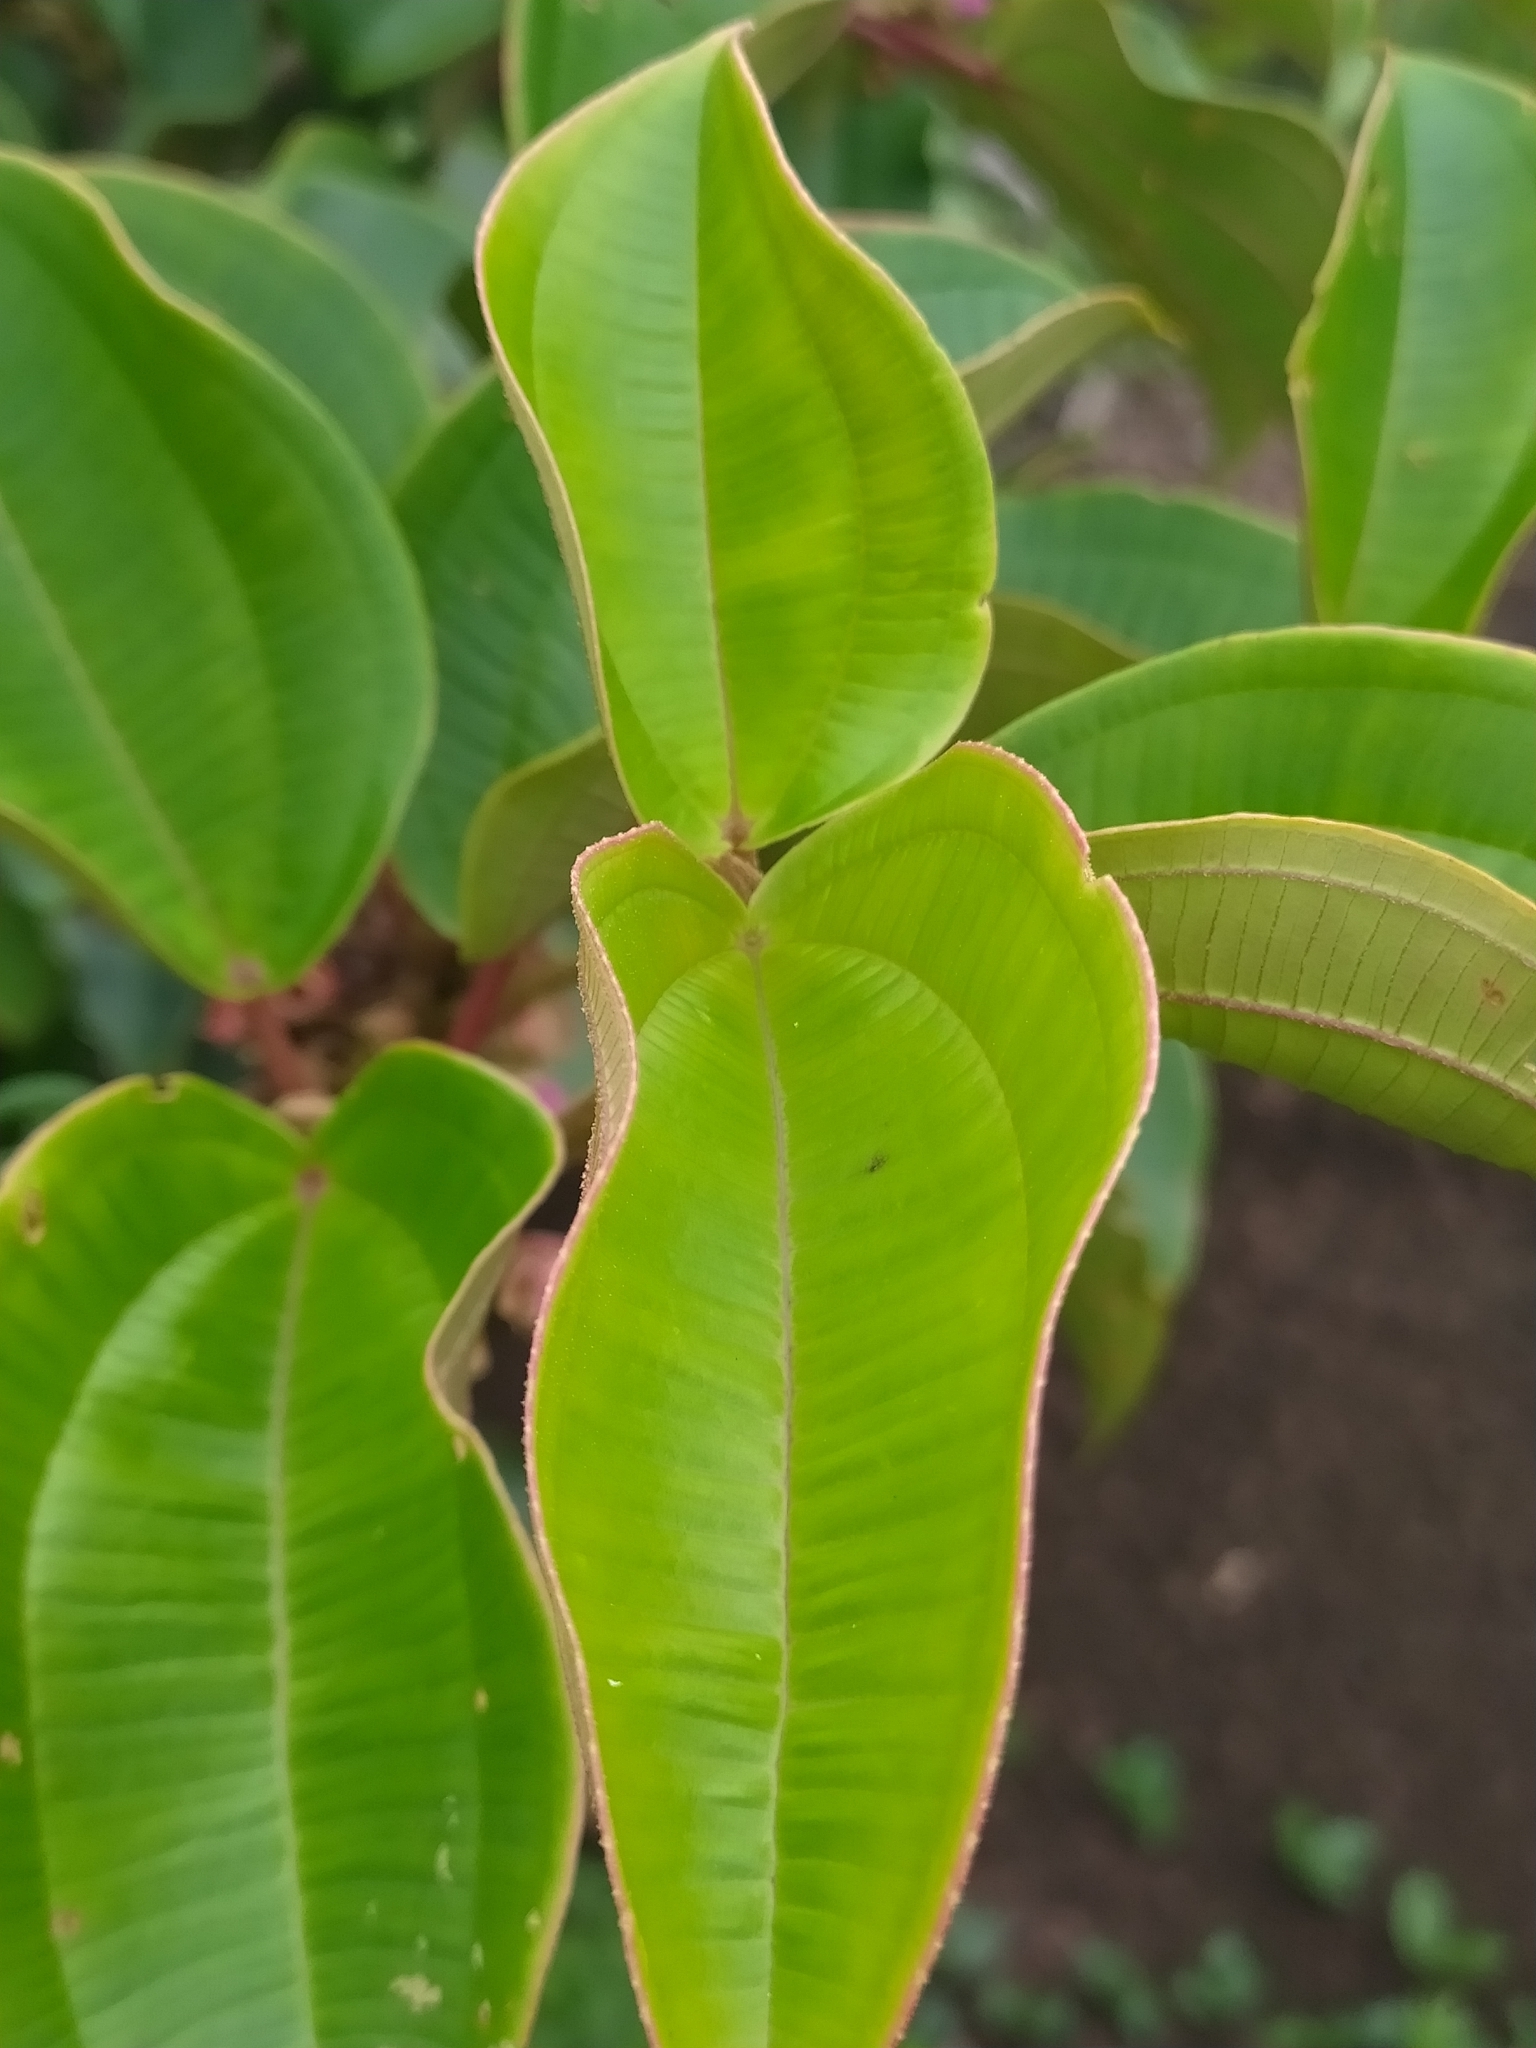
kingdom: Plantae
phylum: Tracheophyta
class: Magnoliopsida
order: Myrtales
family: Melastomataceae
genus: Blakea
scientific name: Blakea parasitica
